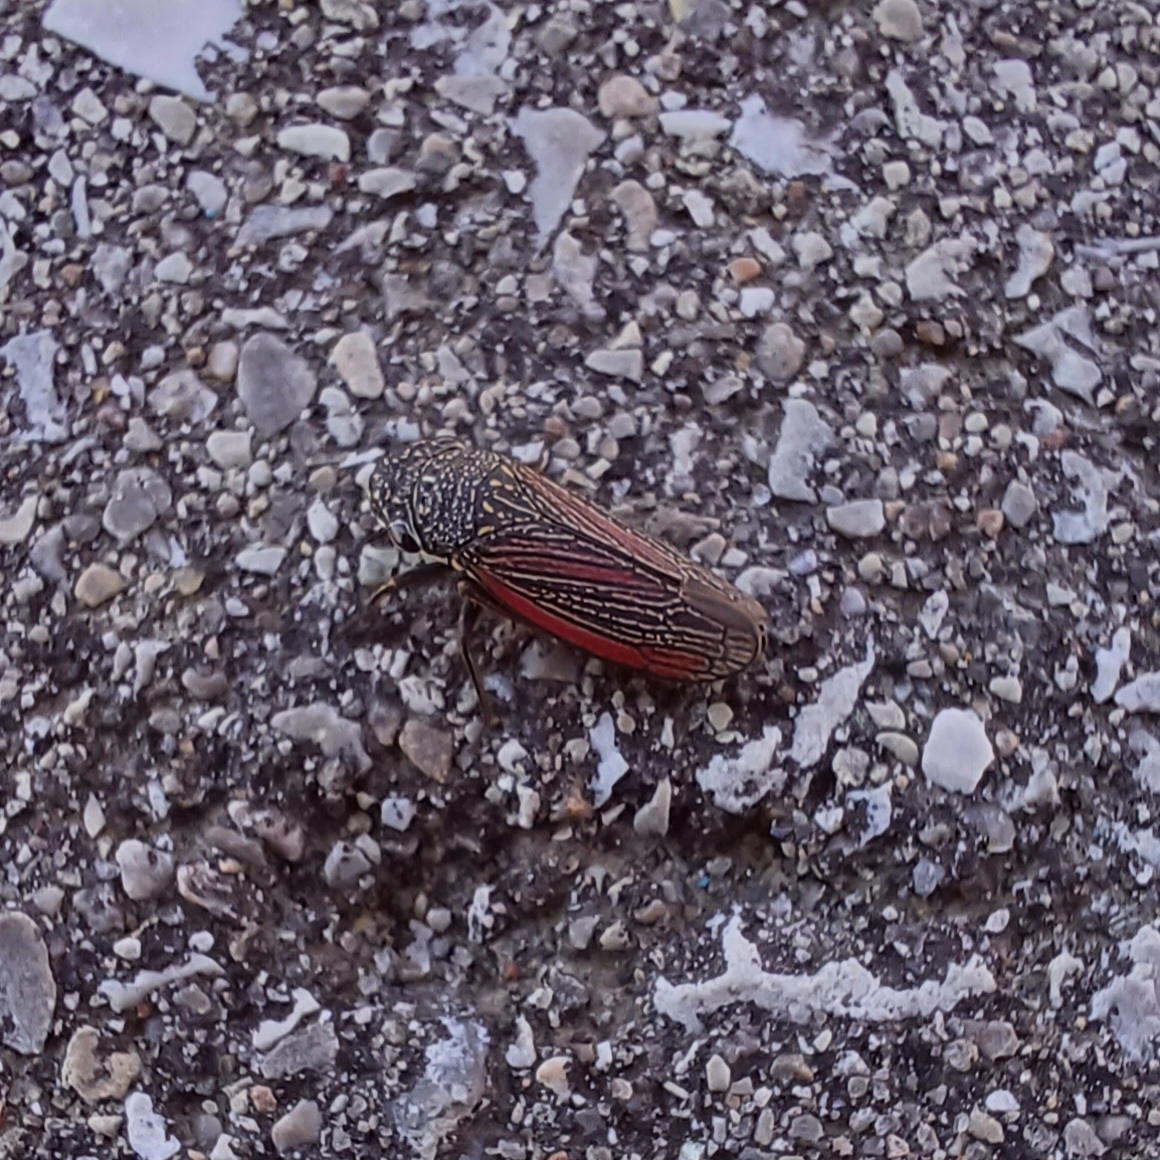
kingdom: Animalia
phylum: Arthropoda
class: Insecta
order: Hemiptera
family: Cicadellidae
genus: Cuerna
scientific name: Cuerna striata
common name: Striped leafhopper
